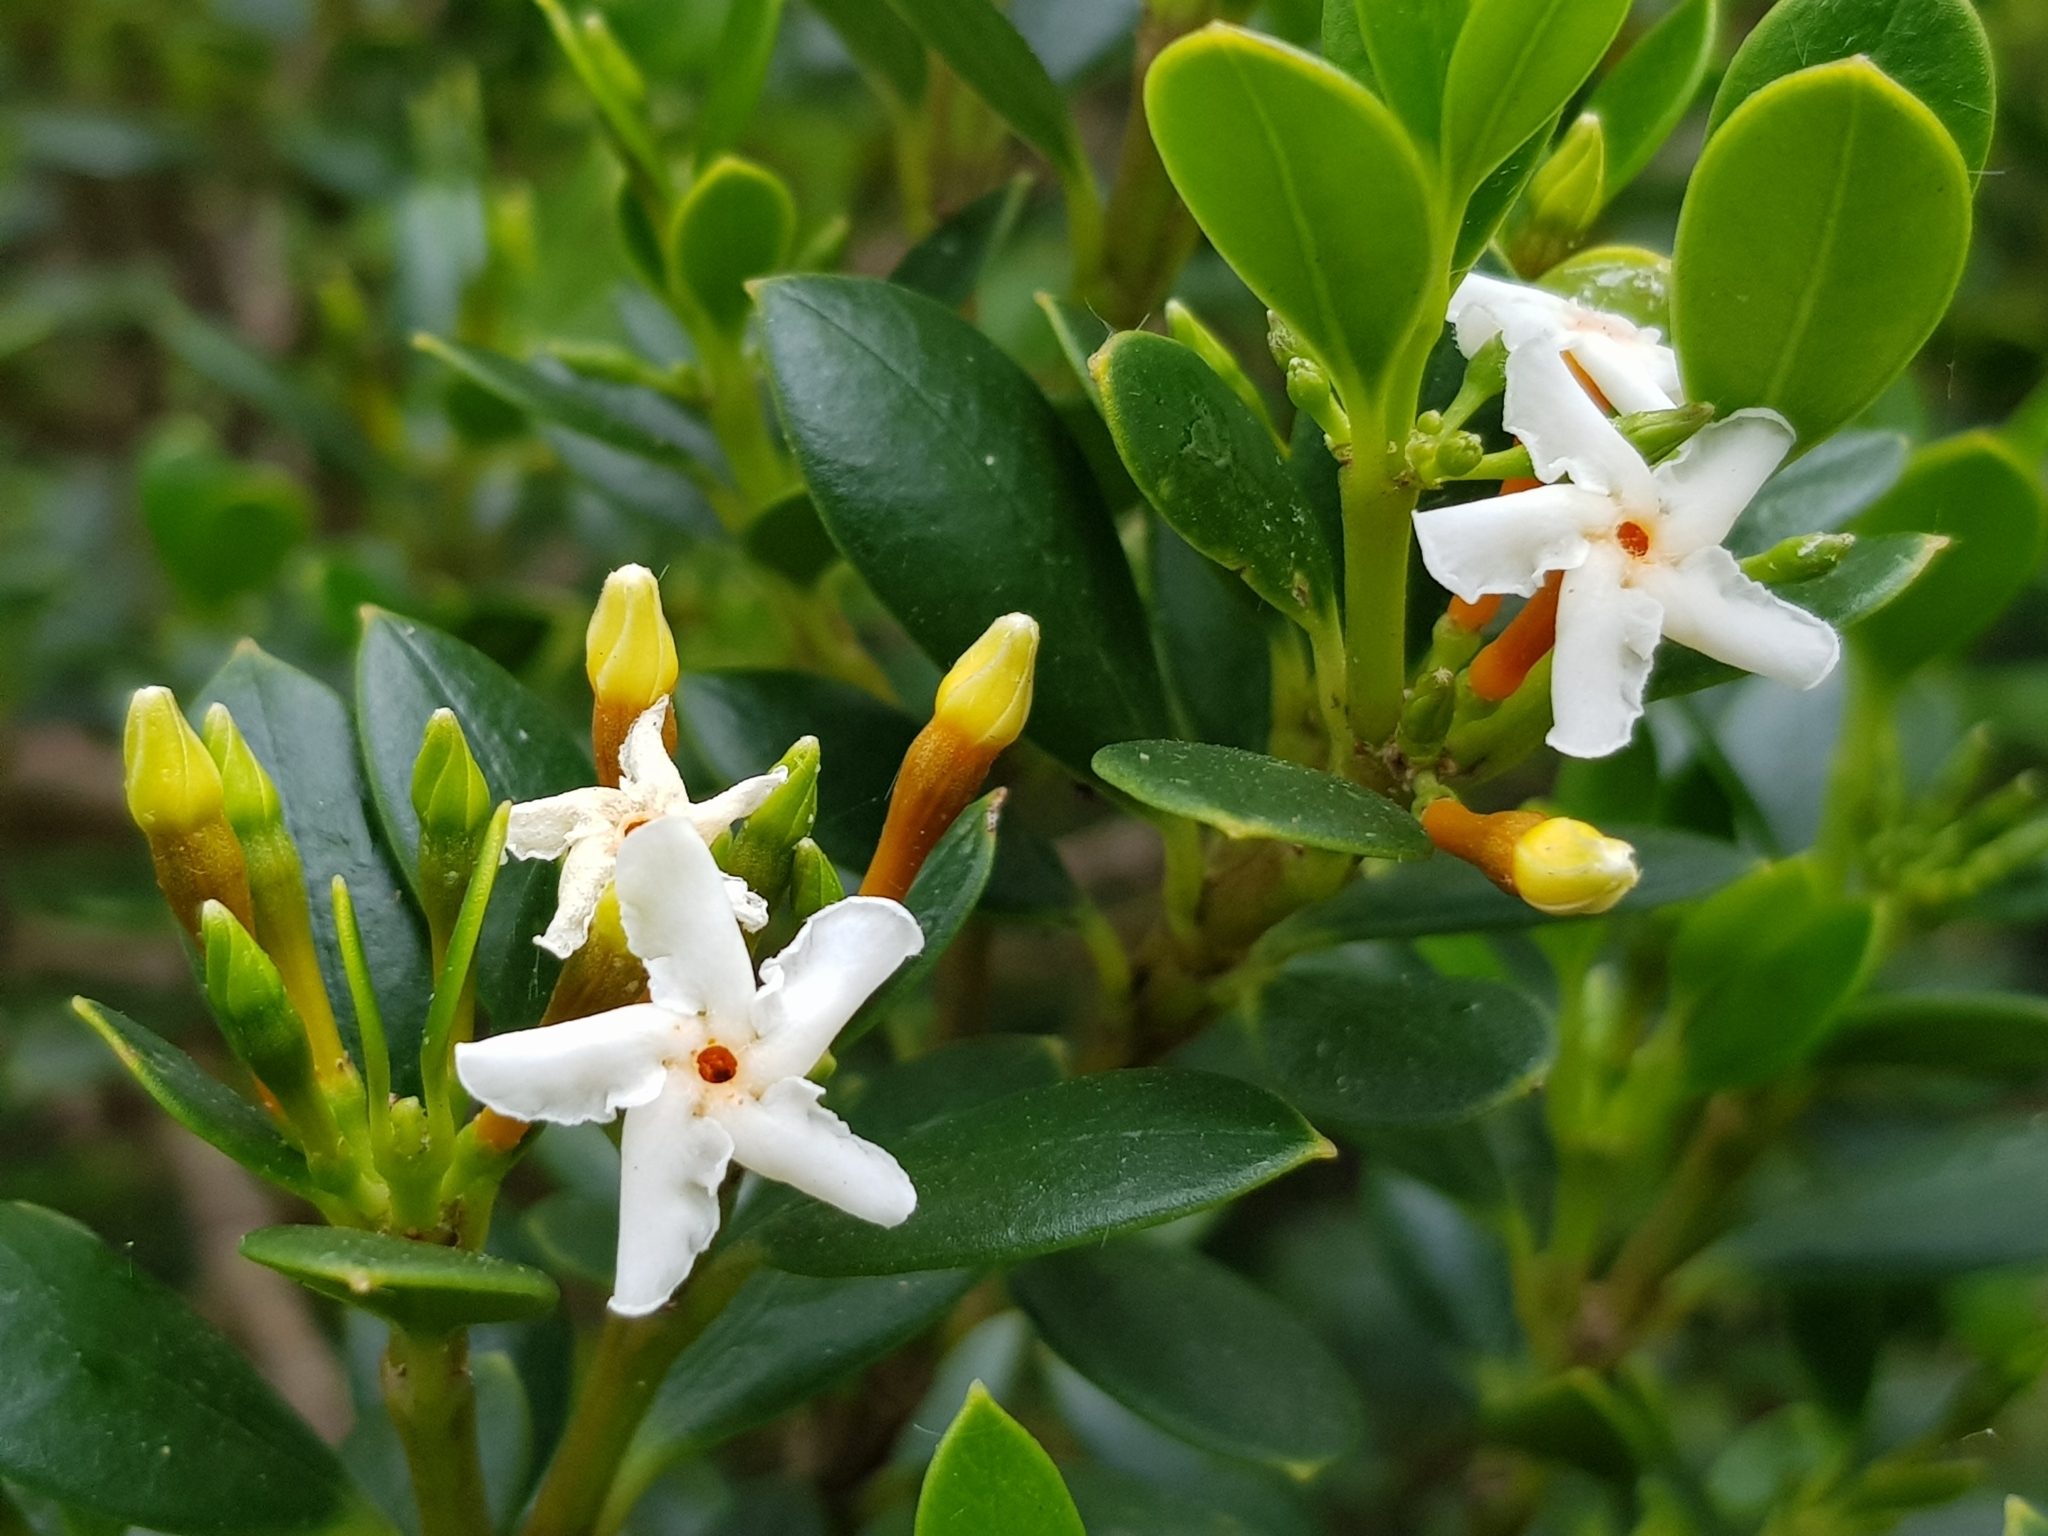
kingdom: Plantae
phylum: Tracheophyta
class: Magnoliopsida
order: Gentianales
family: Apocynaceae
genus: Alyxia
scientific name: Alyxia buxifolia
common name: Dysentery-bush
